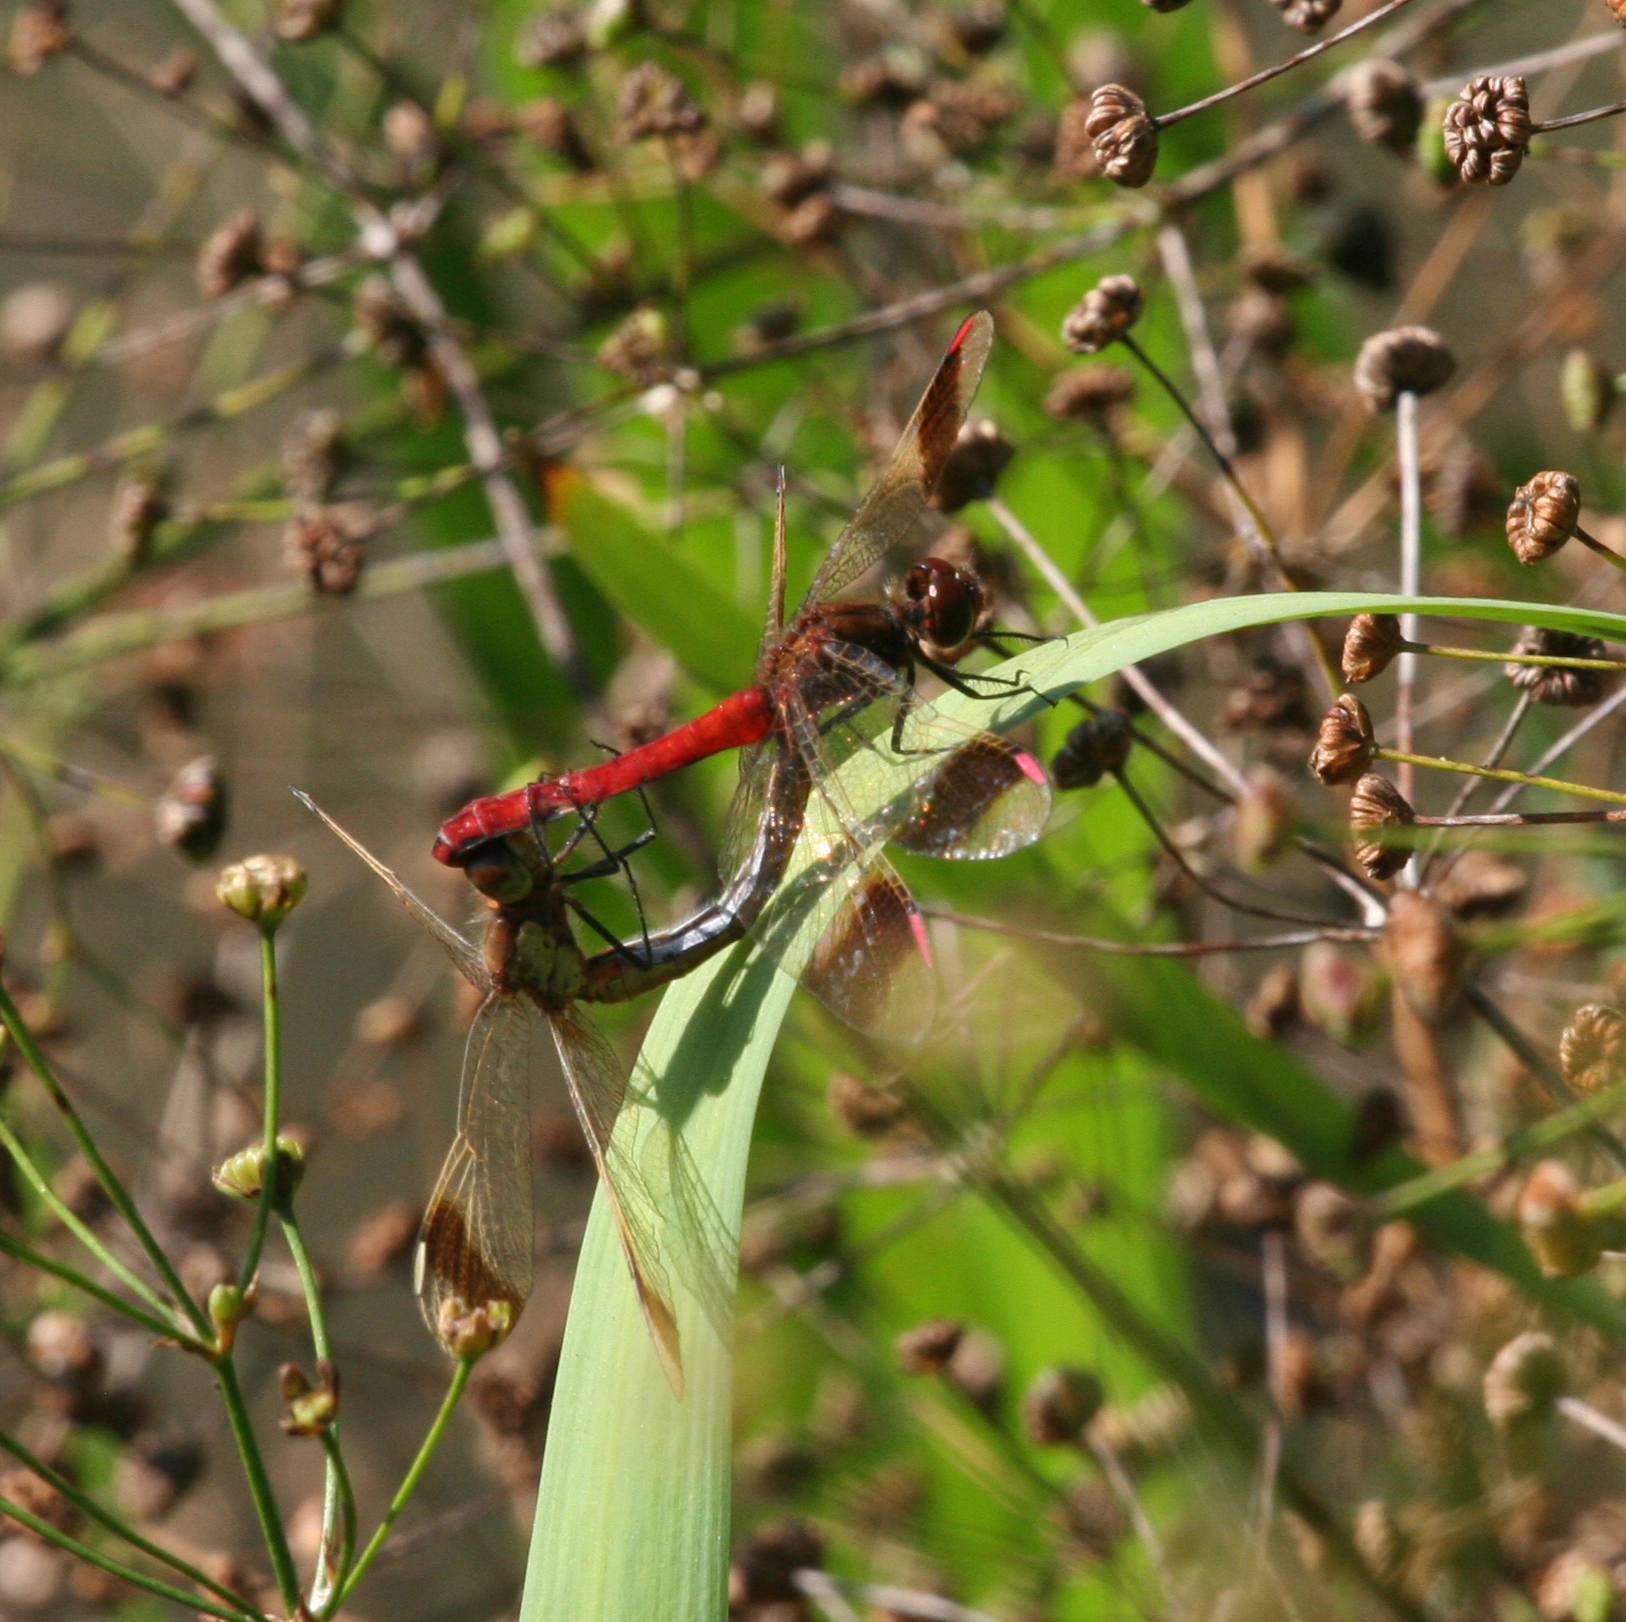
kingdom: Animalia
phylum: Arthropoda
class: Insecta
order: Odonata
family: Libellulidae
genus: Sympetrum
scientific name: Sympetrum pedemontanum
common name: Banded darter
